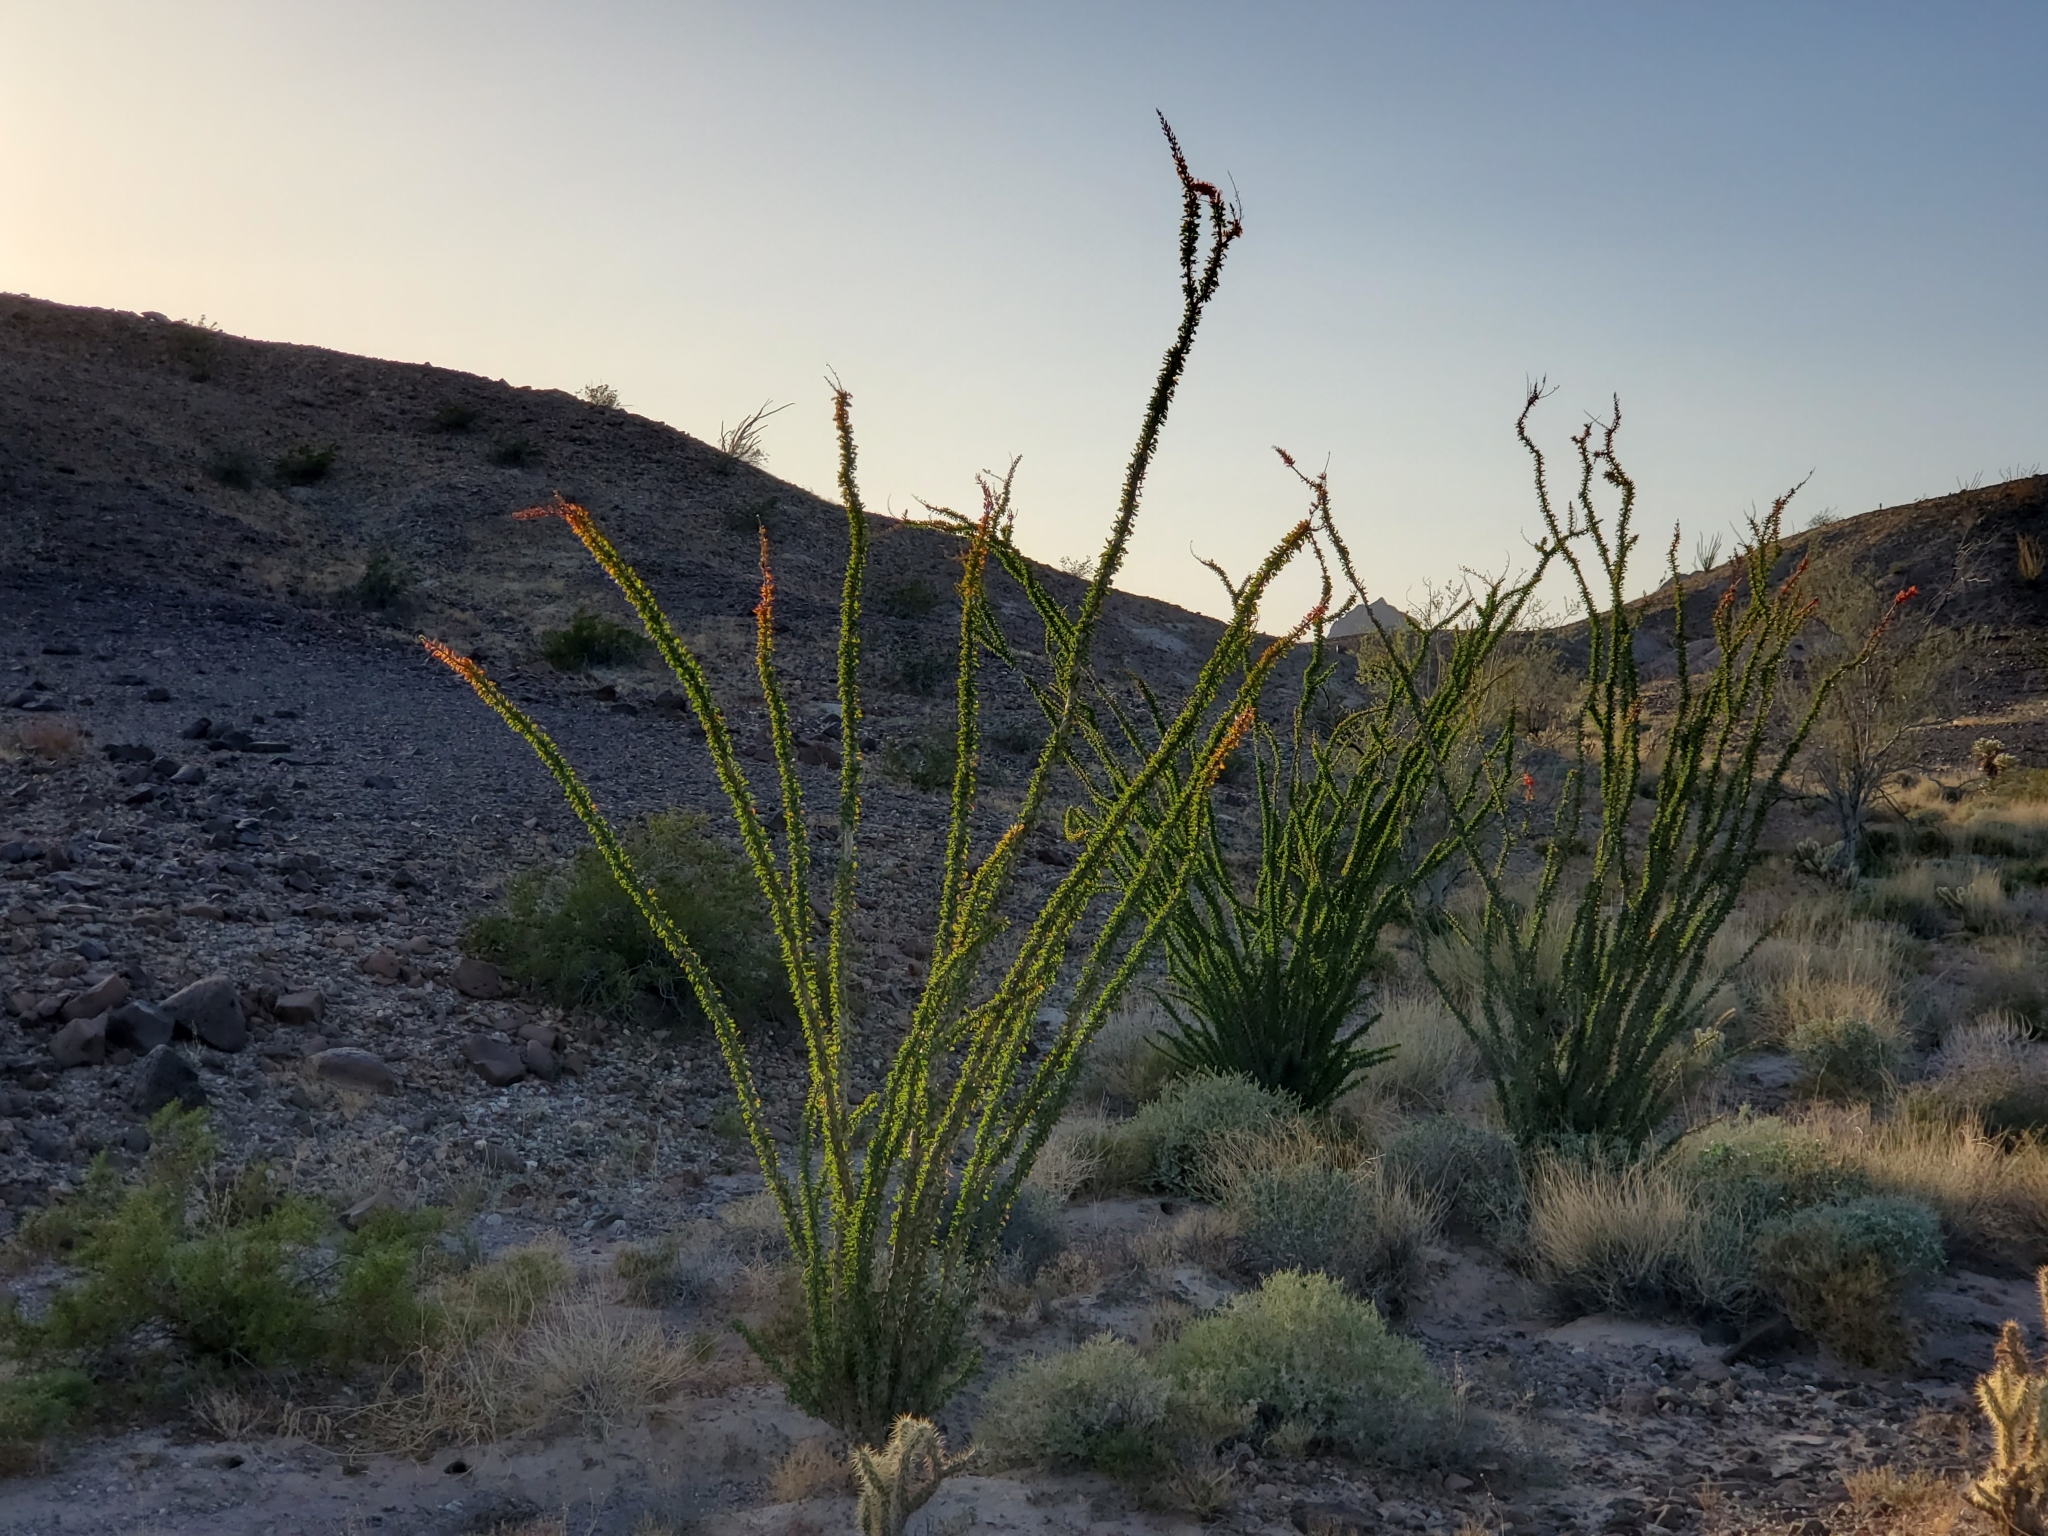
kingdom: Plantae
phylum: Tracheophyta
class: Magnoliopsida
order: Ericales
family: Fouquieriaceae
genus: Fouquieria
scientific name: Fouquieria splendens
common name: Vine-cactus
